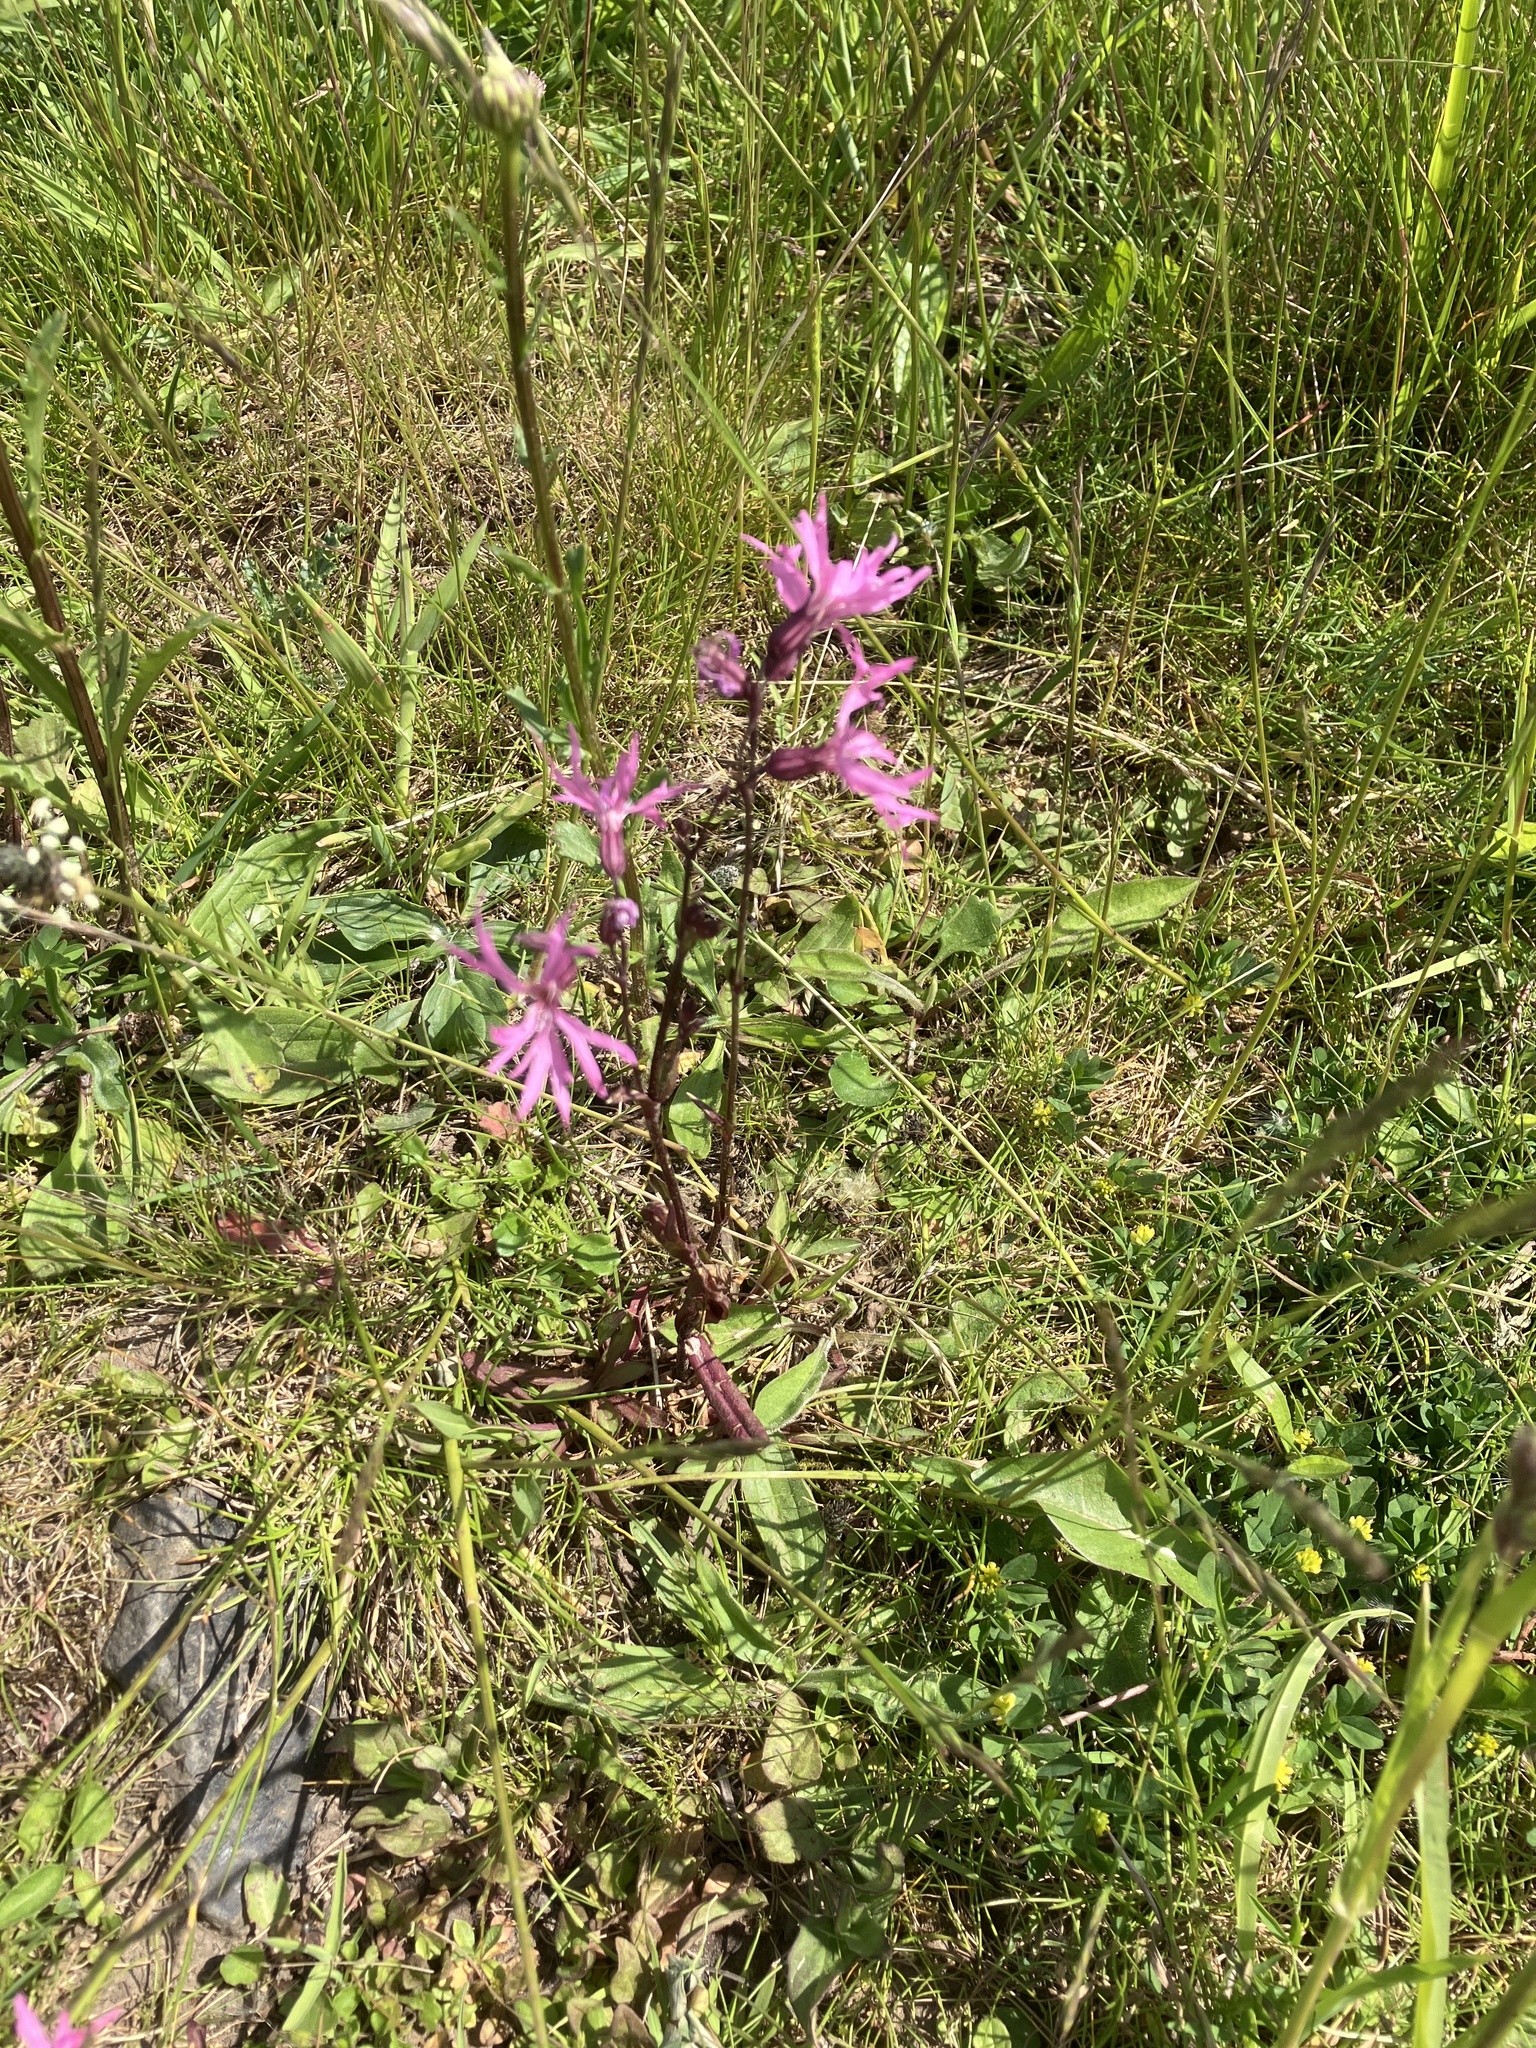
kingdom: Plantae
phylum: Tracheophyta
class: Magnoliopsida
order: Caryophyllales
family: Caryophyllaceae
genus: Silene
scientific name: Silene flos-cuculi
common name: Ragged-robin
